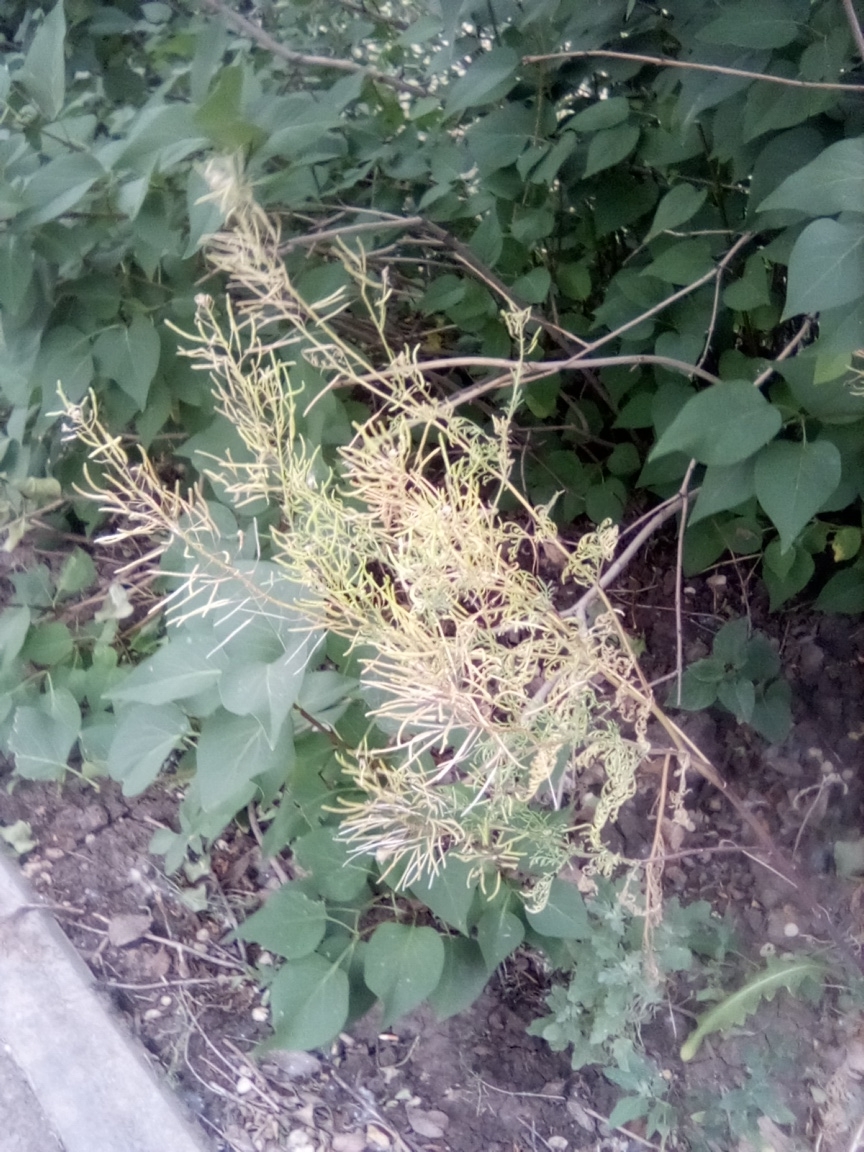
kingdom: Plantae
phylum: Tracheophyta
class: Magnoliopsida
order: Brassicales
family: Brassicaceae
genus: Descurainia
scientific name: Descurainia sophia
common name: Flixweed
